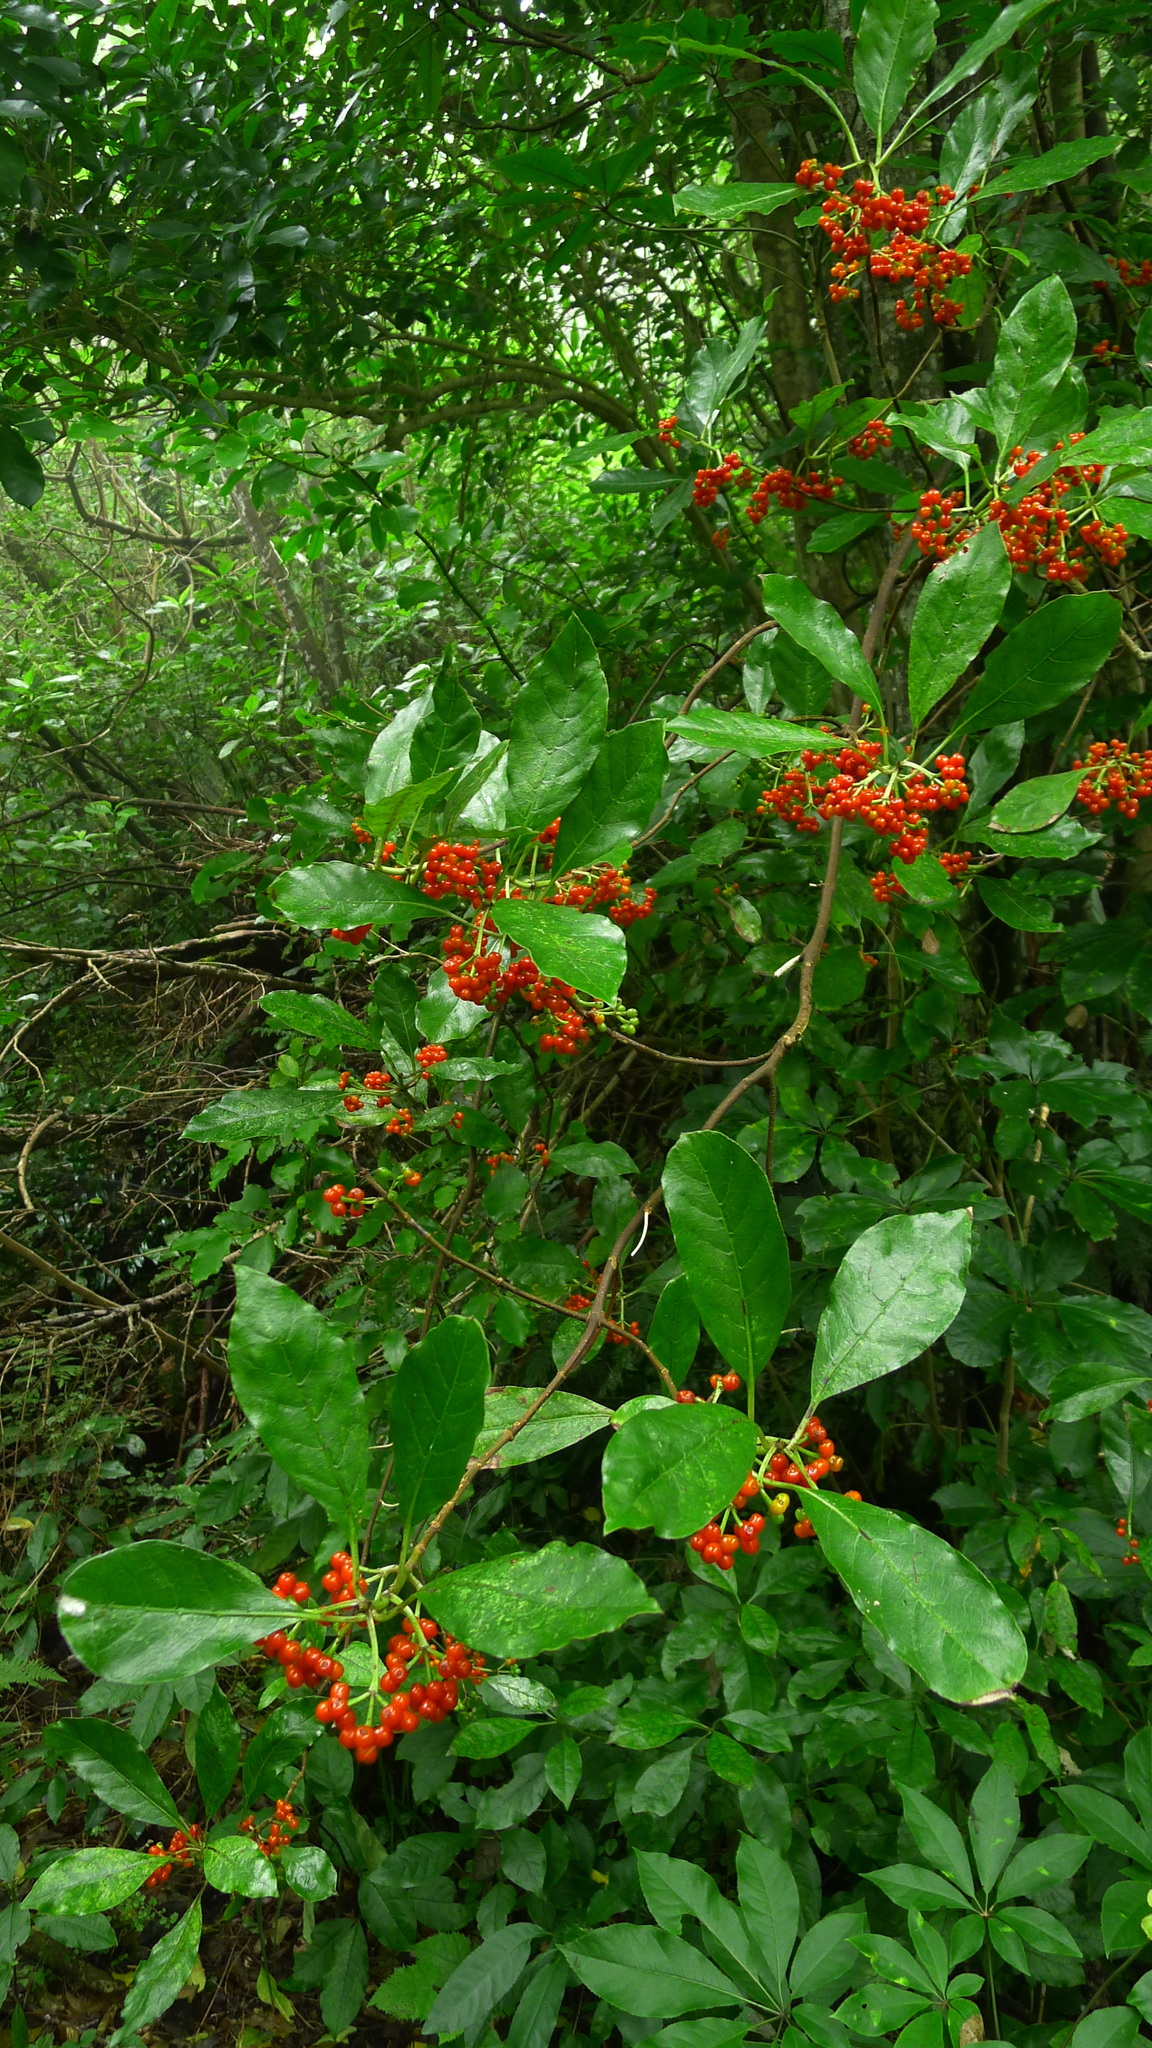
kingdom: Plantae
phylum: Tracheophyta
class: Magnoliopsida
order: Gentianales
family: Rubiaceae
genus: Coprosma
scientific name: Coprosma autumnalis
